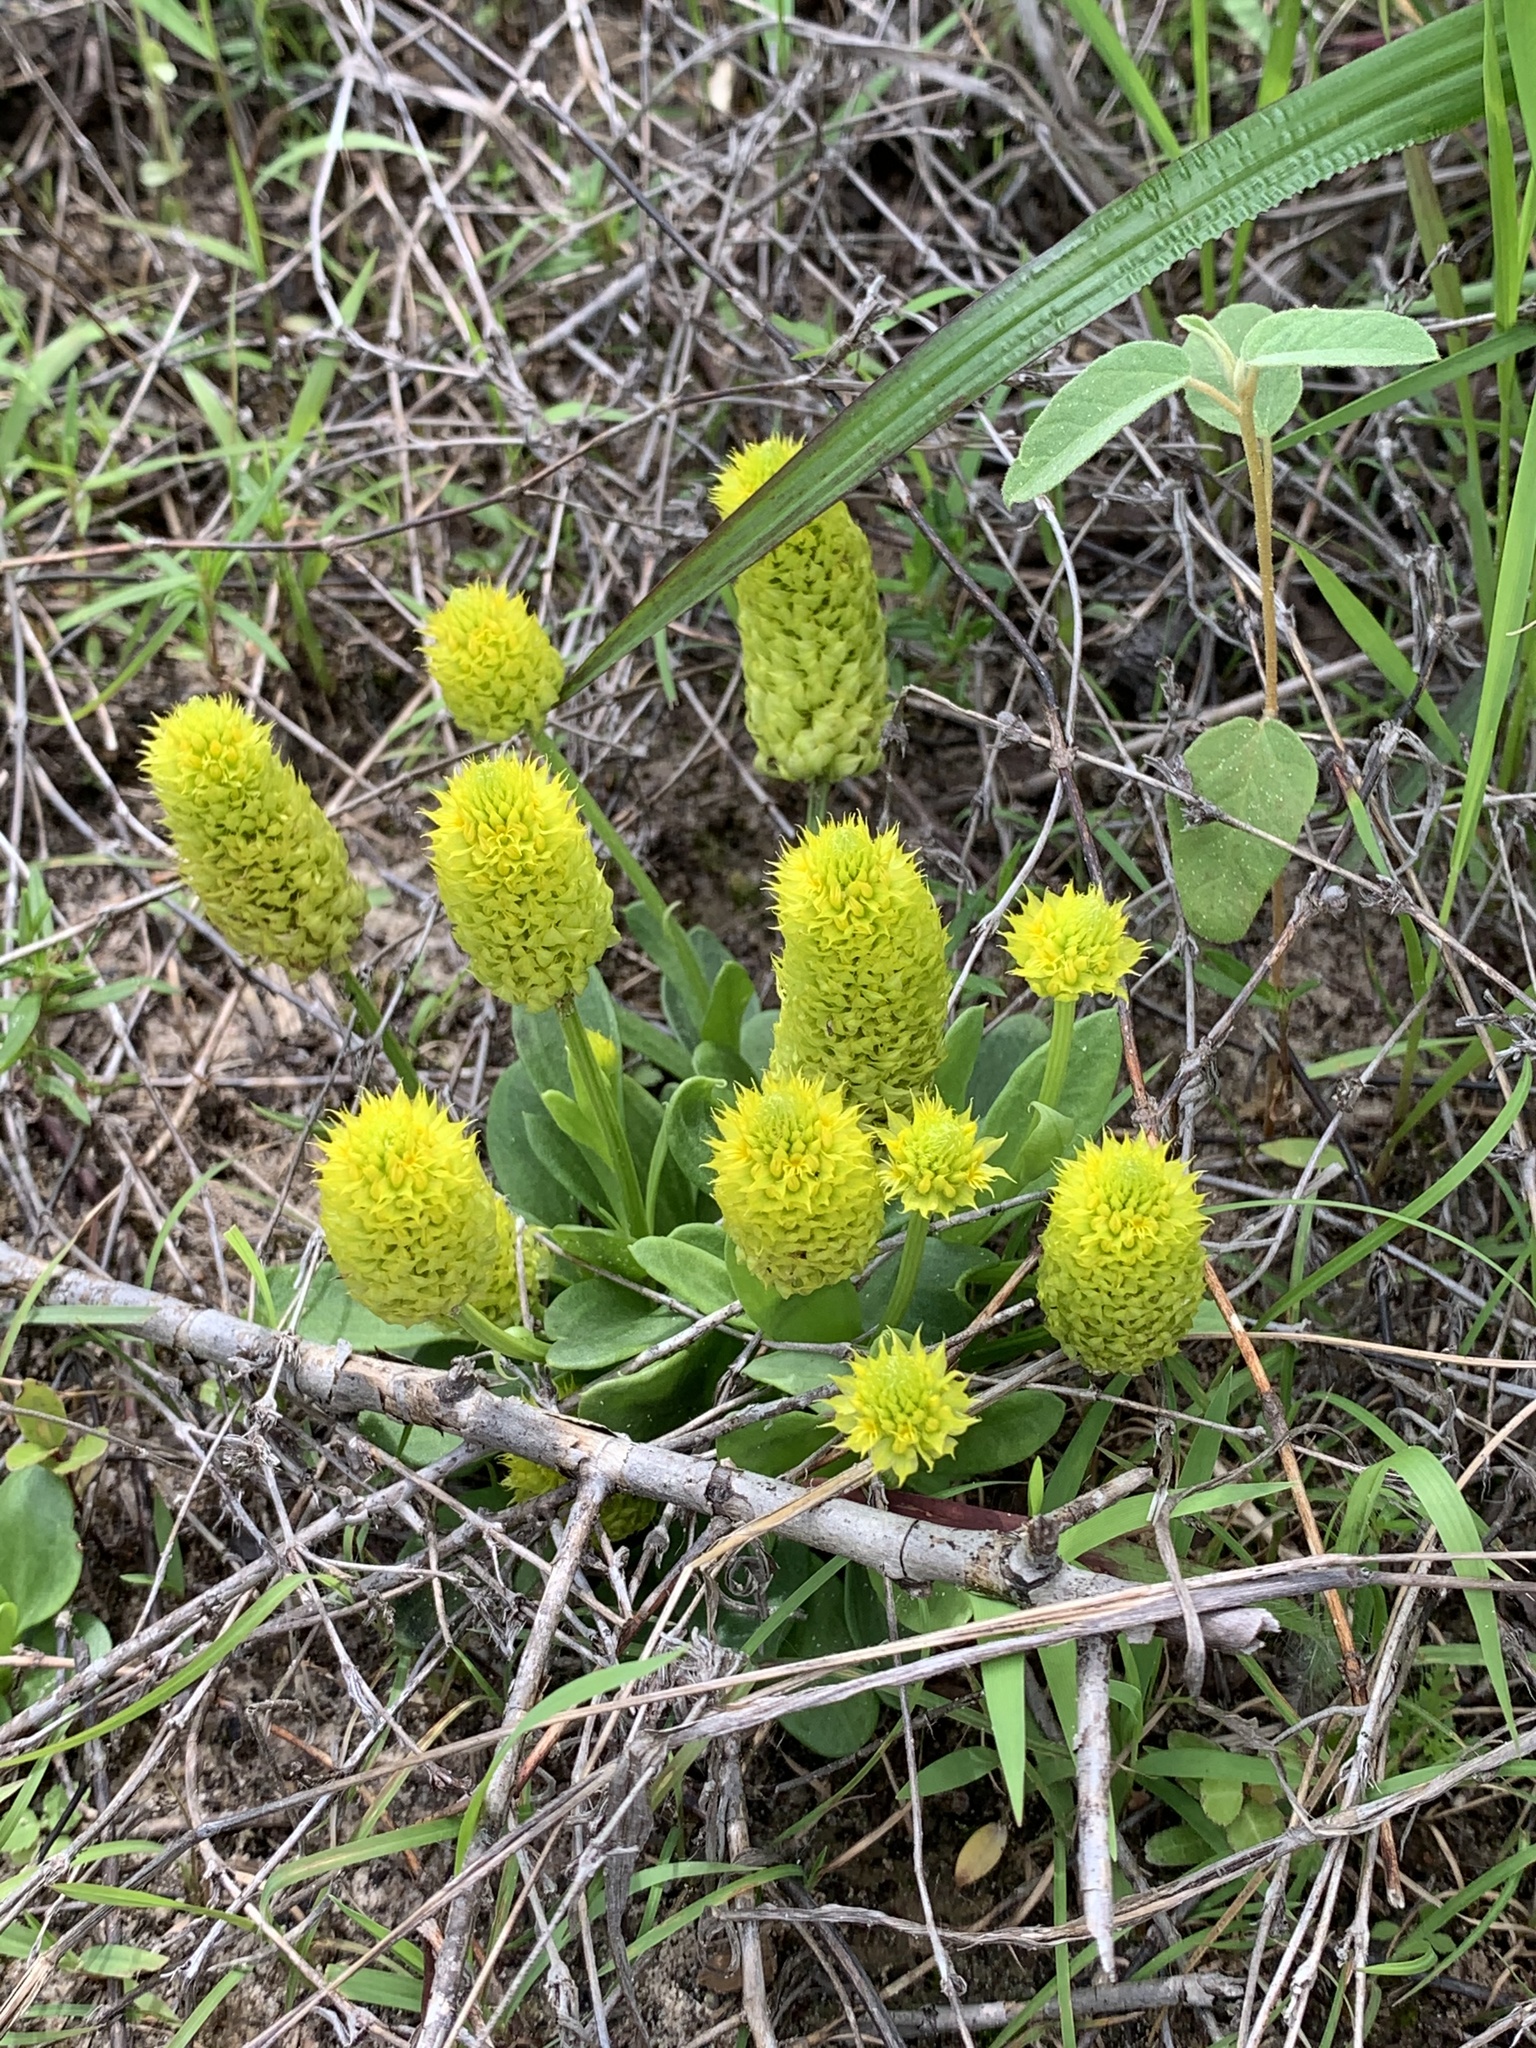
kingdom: Plantae
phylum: Tracheophyta
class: Magnoliopsida
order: Fabales
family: Polygalaceae
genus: Polygala
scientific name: Polygala nana
